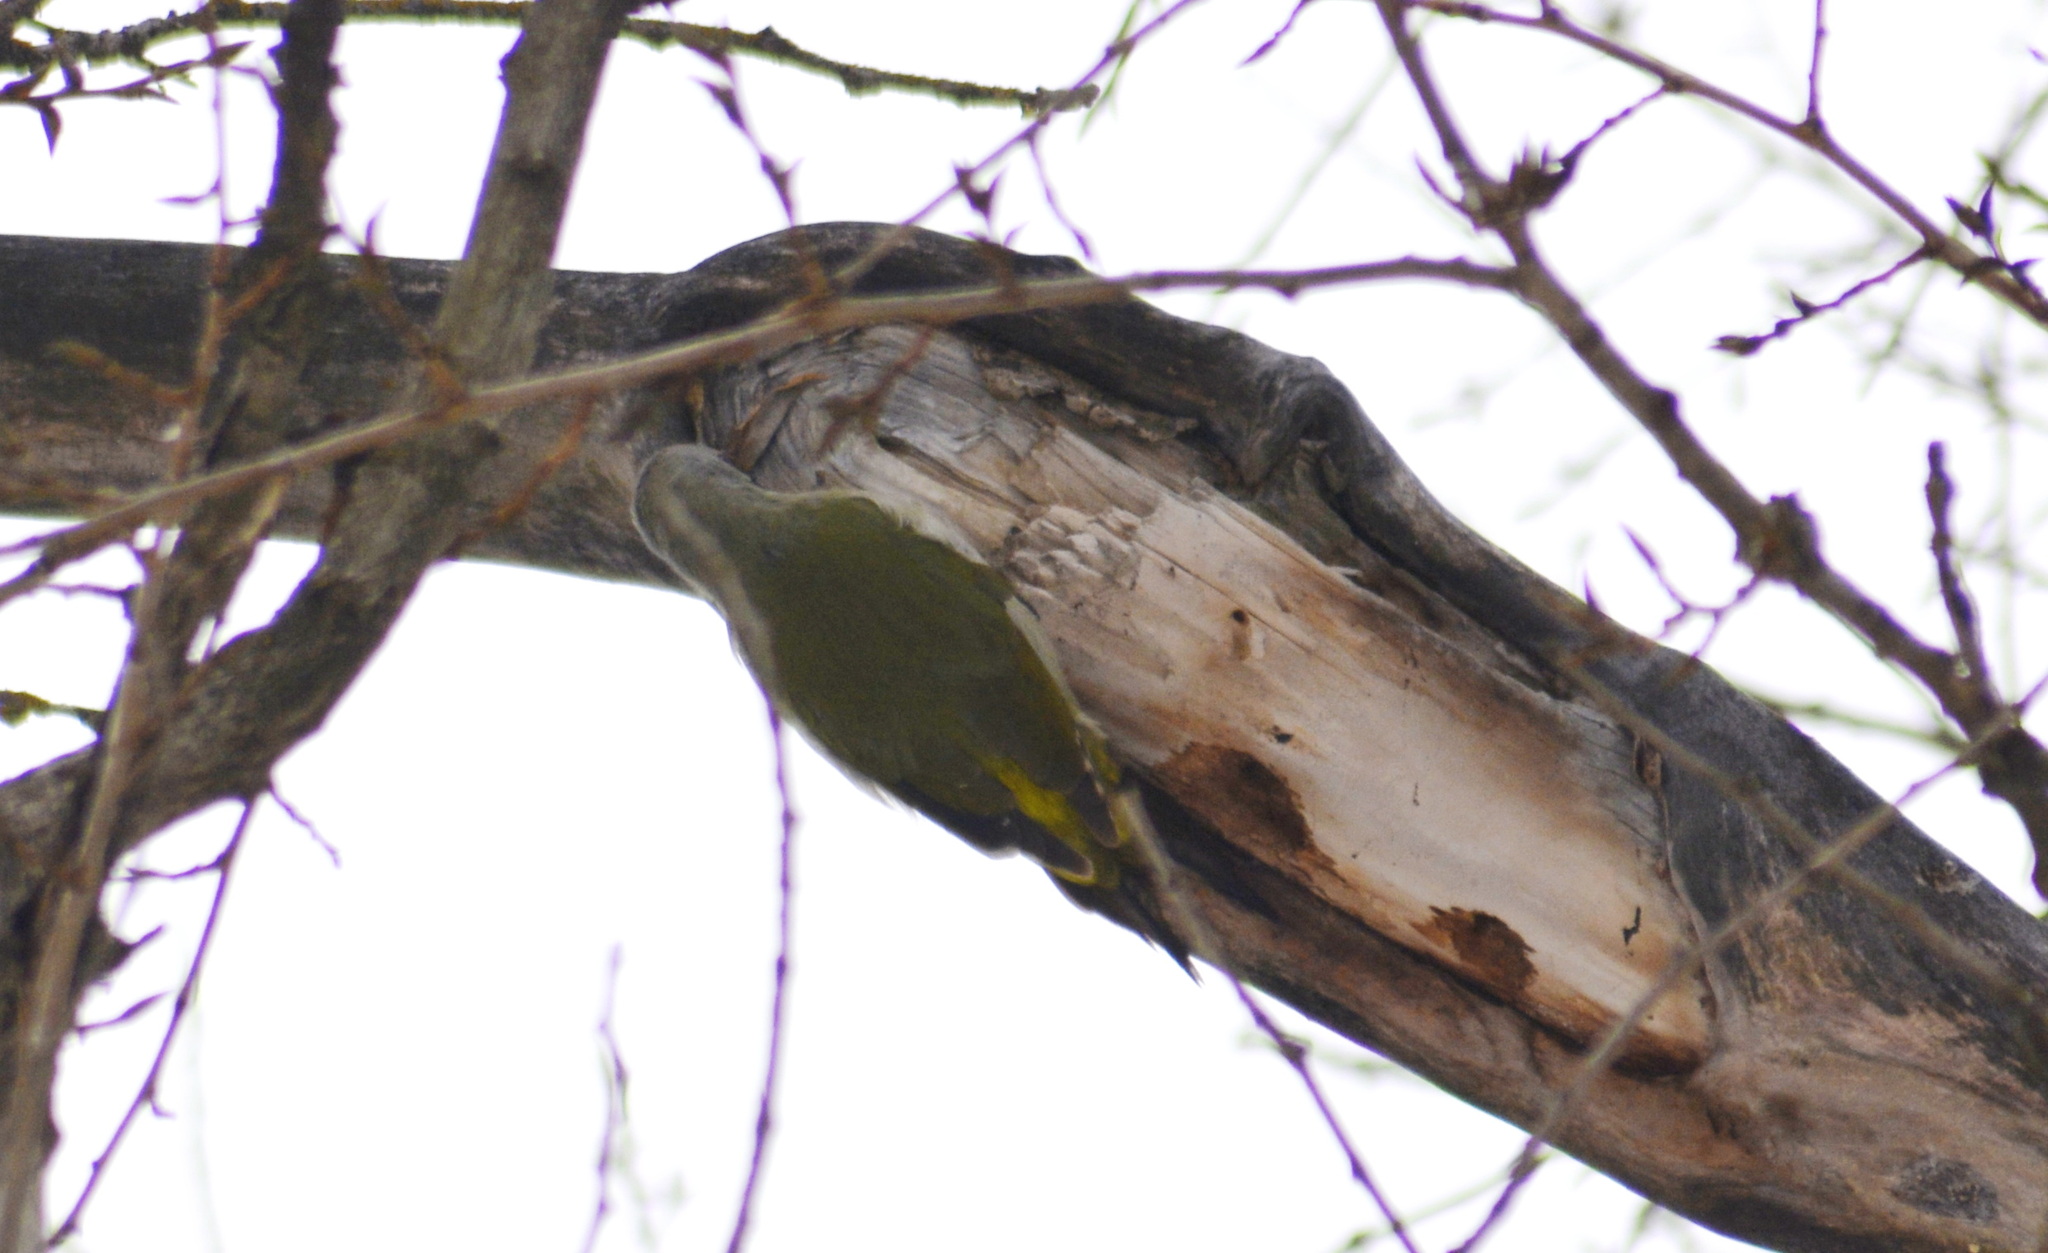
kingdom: Animalia
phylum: Chordata
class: Aves
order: Piciformes
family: Picidae
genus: Picus
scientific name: Picus canus
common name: Grey-headed woodpecker
